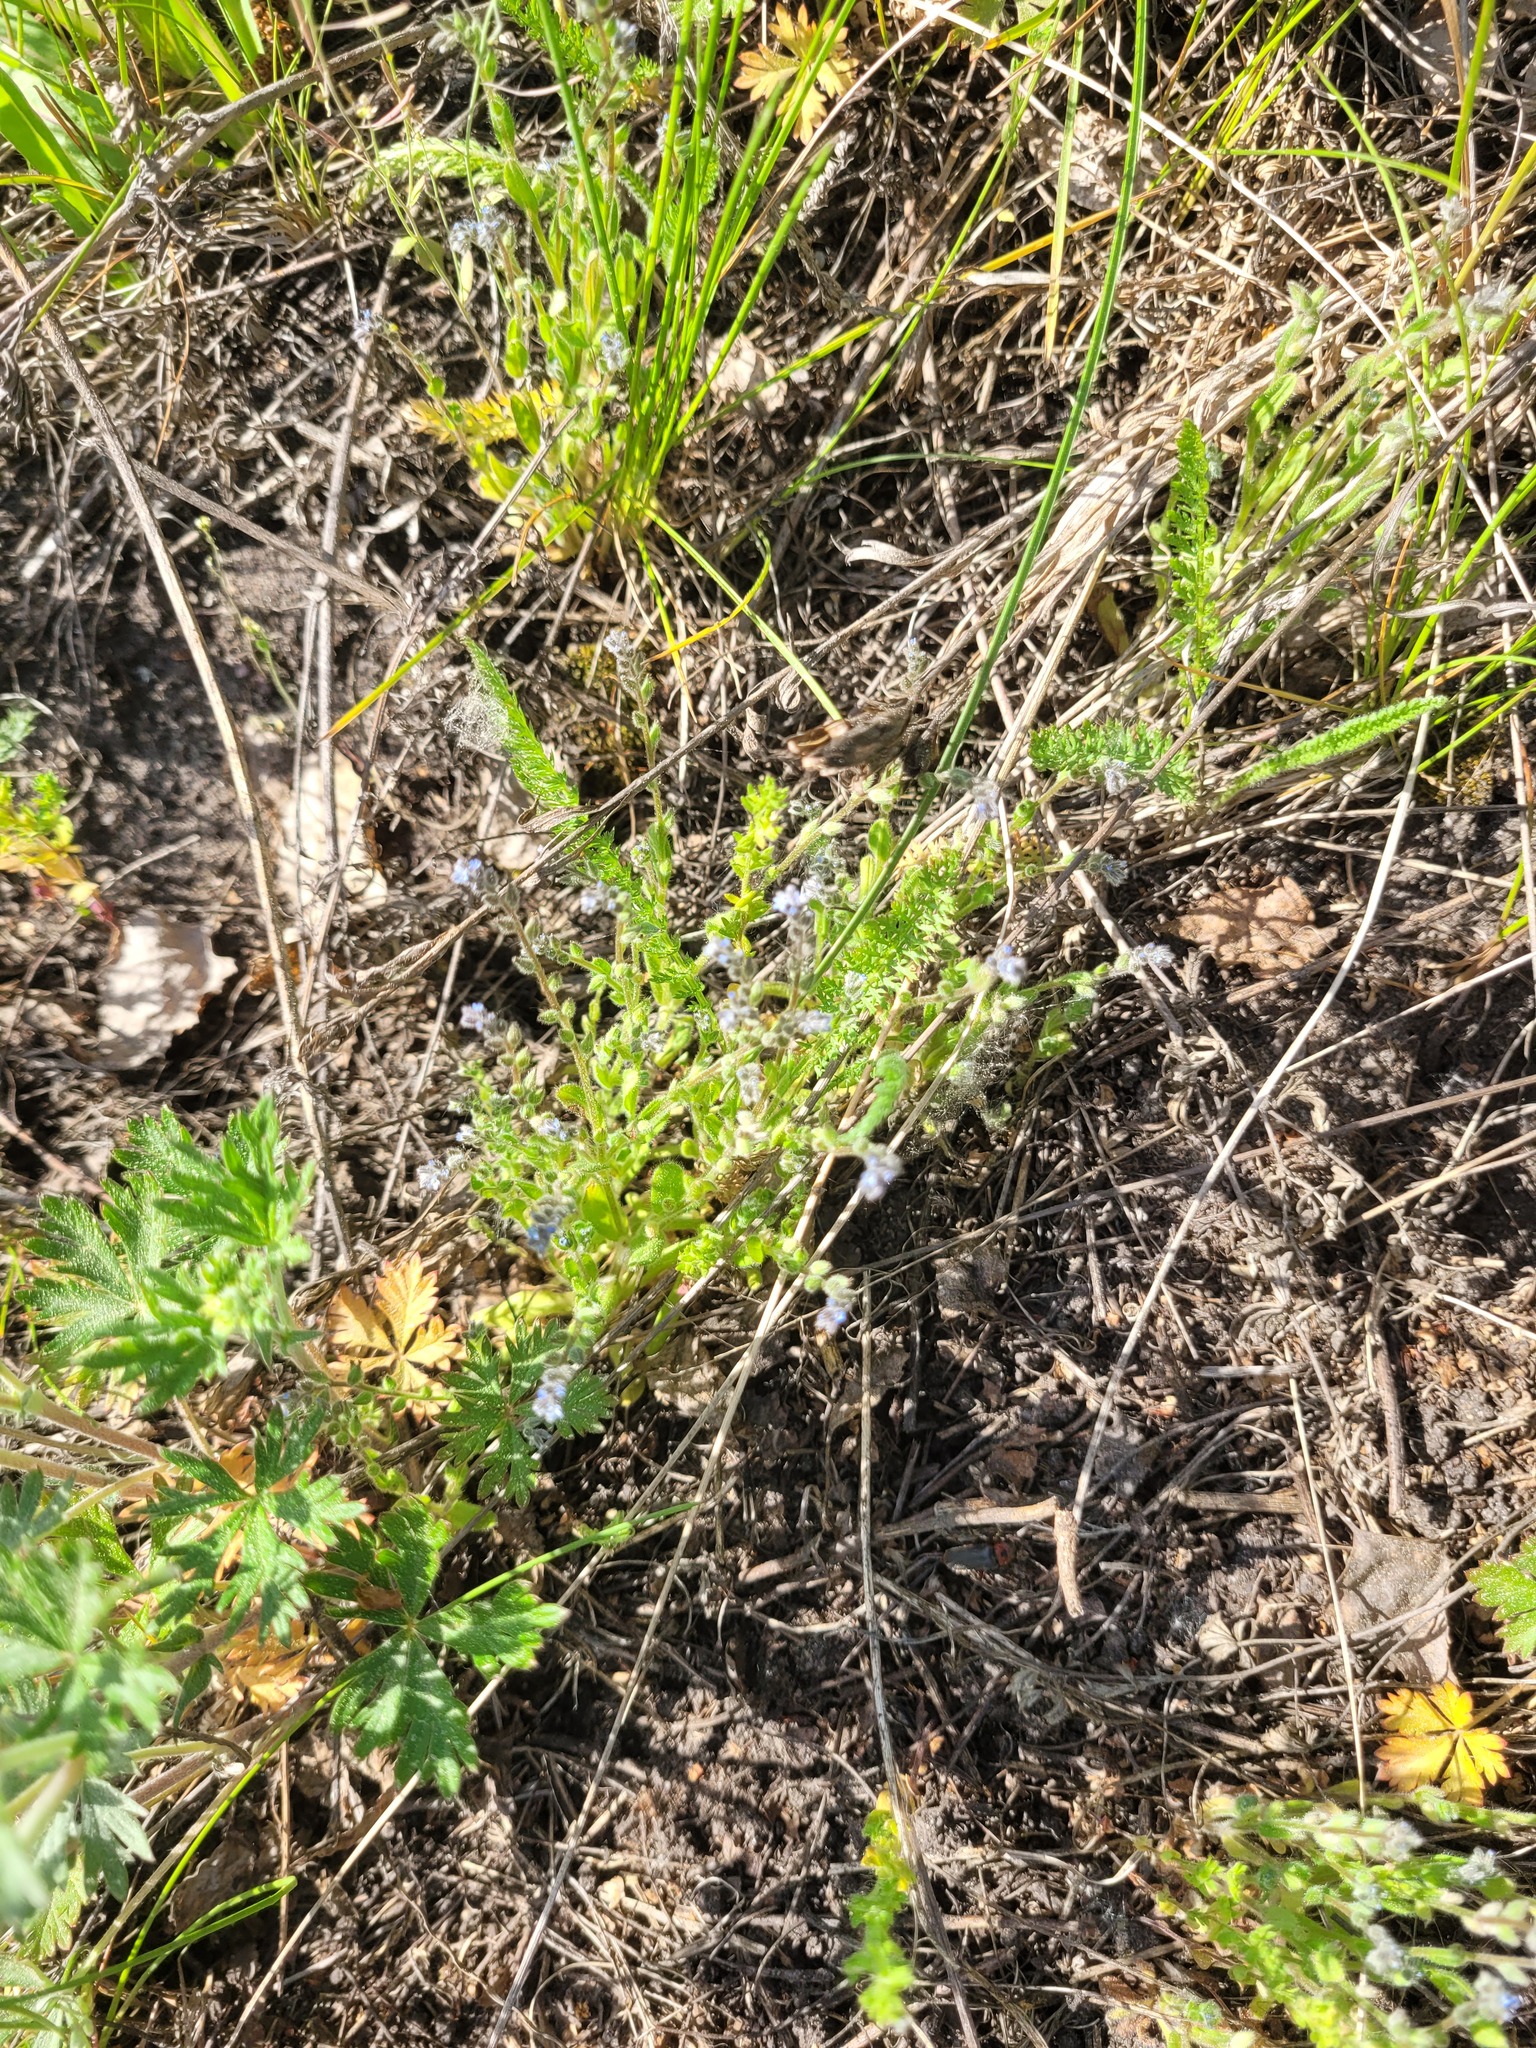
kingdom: Plantae
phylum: Tracheophyta
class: Magnoliopsida
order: Boraginales
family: Boraginaceae
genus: Myosotis
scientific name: Myosotis stricta
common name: Strict forget-me-not
